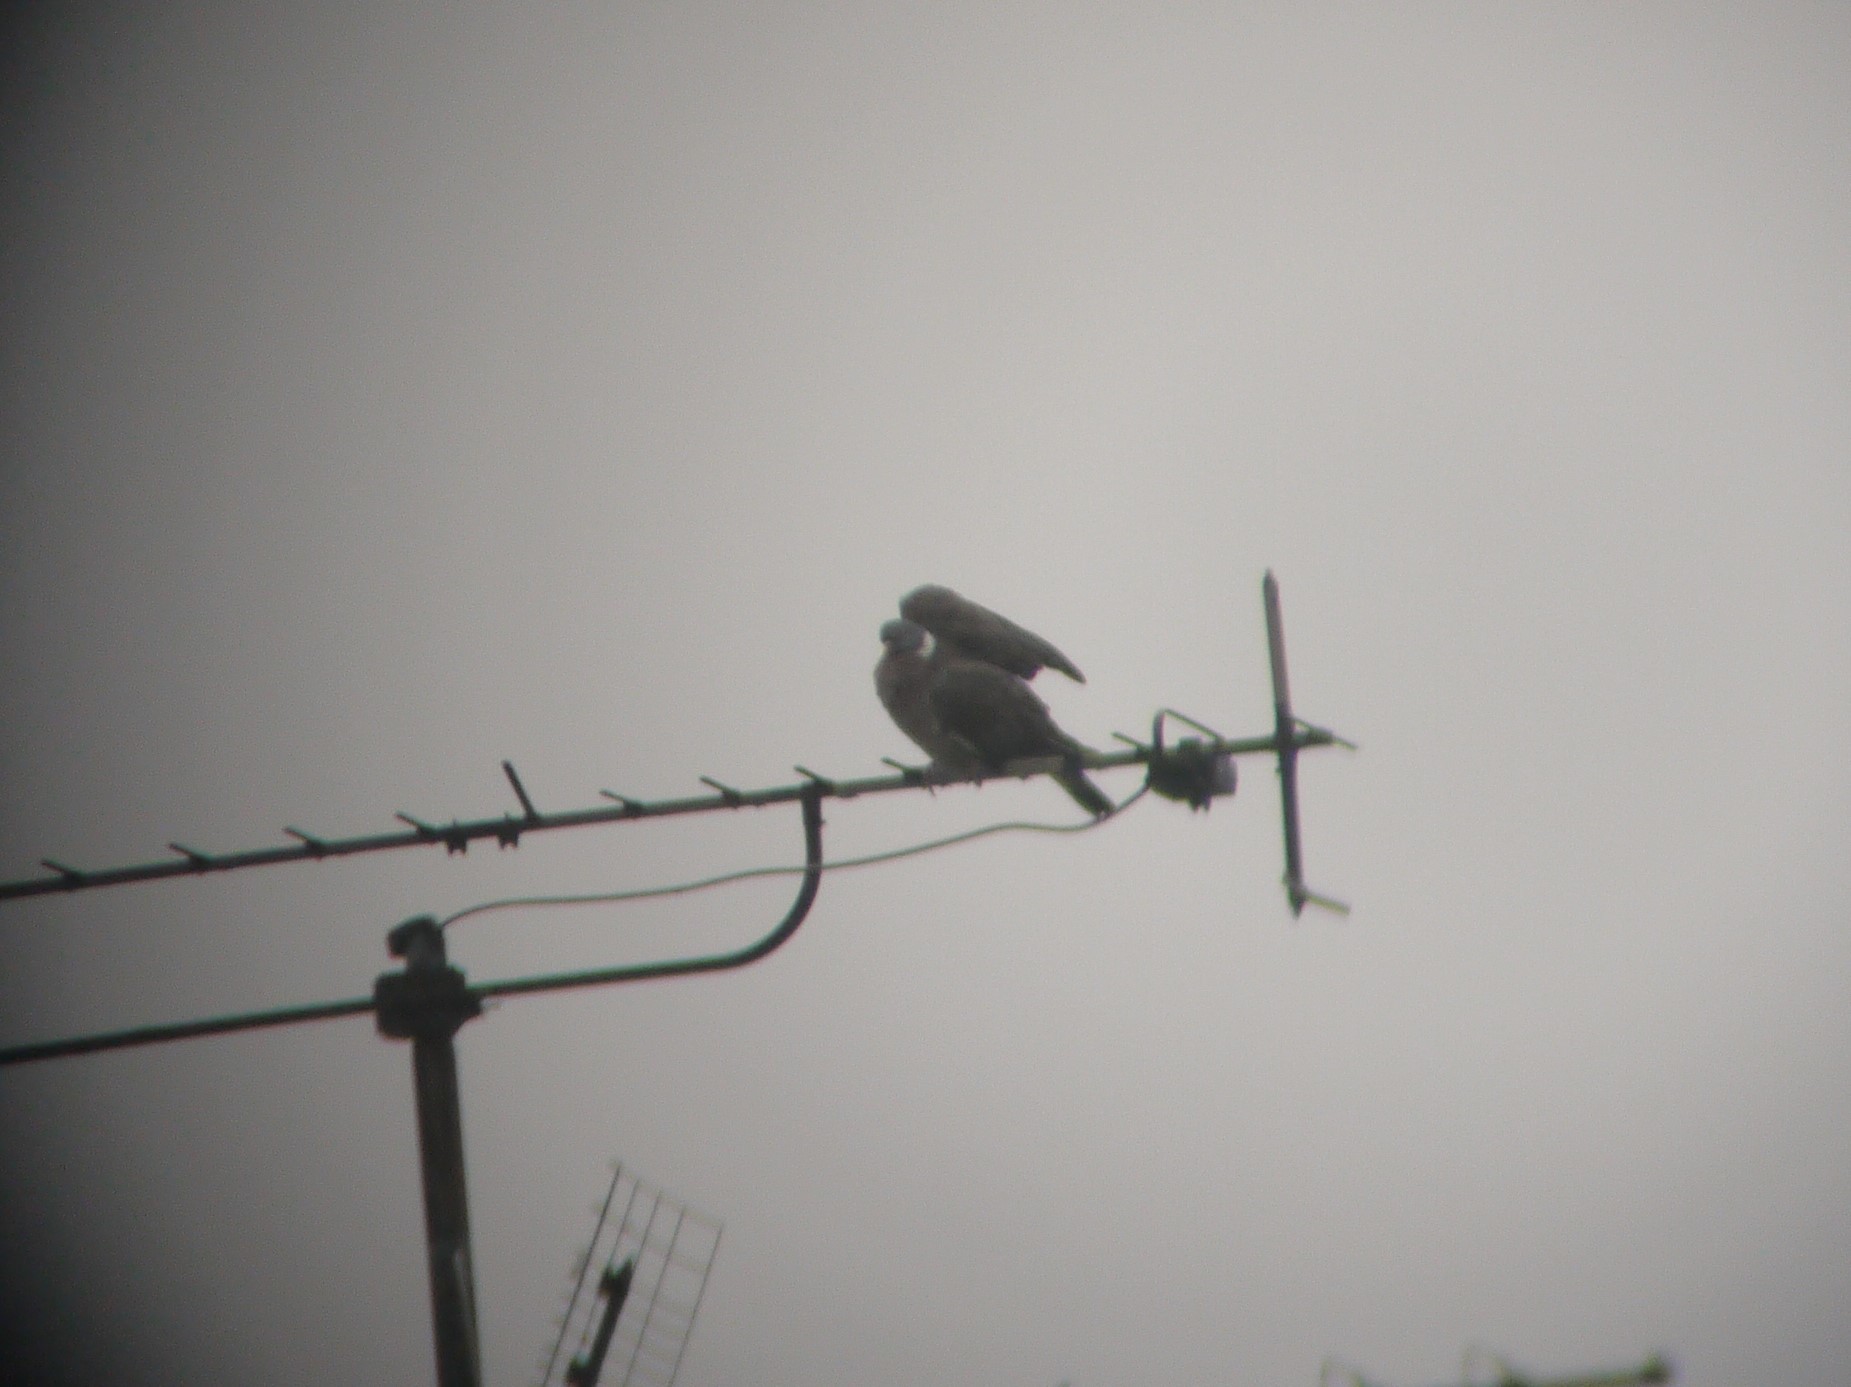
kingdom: Animalia
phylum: Chordata
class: Aves
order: Columbiformes
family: Columbidae
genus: Columba
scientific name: Columba palumbus
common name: Common wood pigeon
